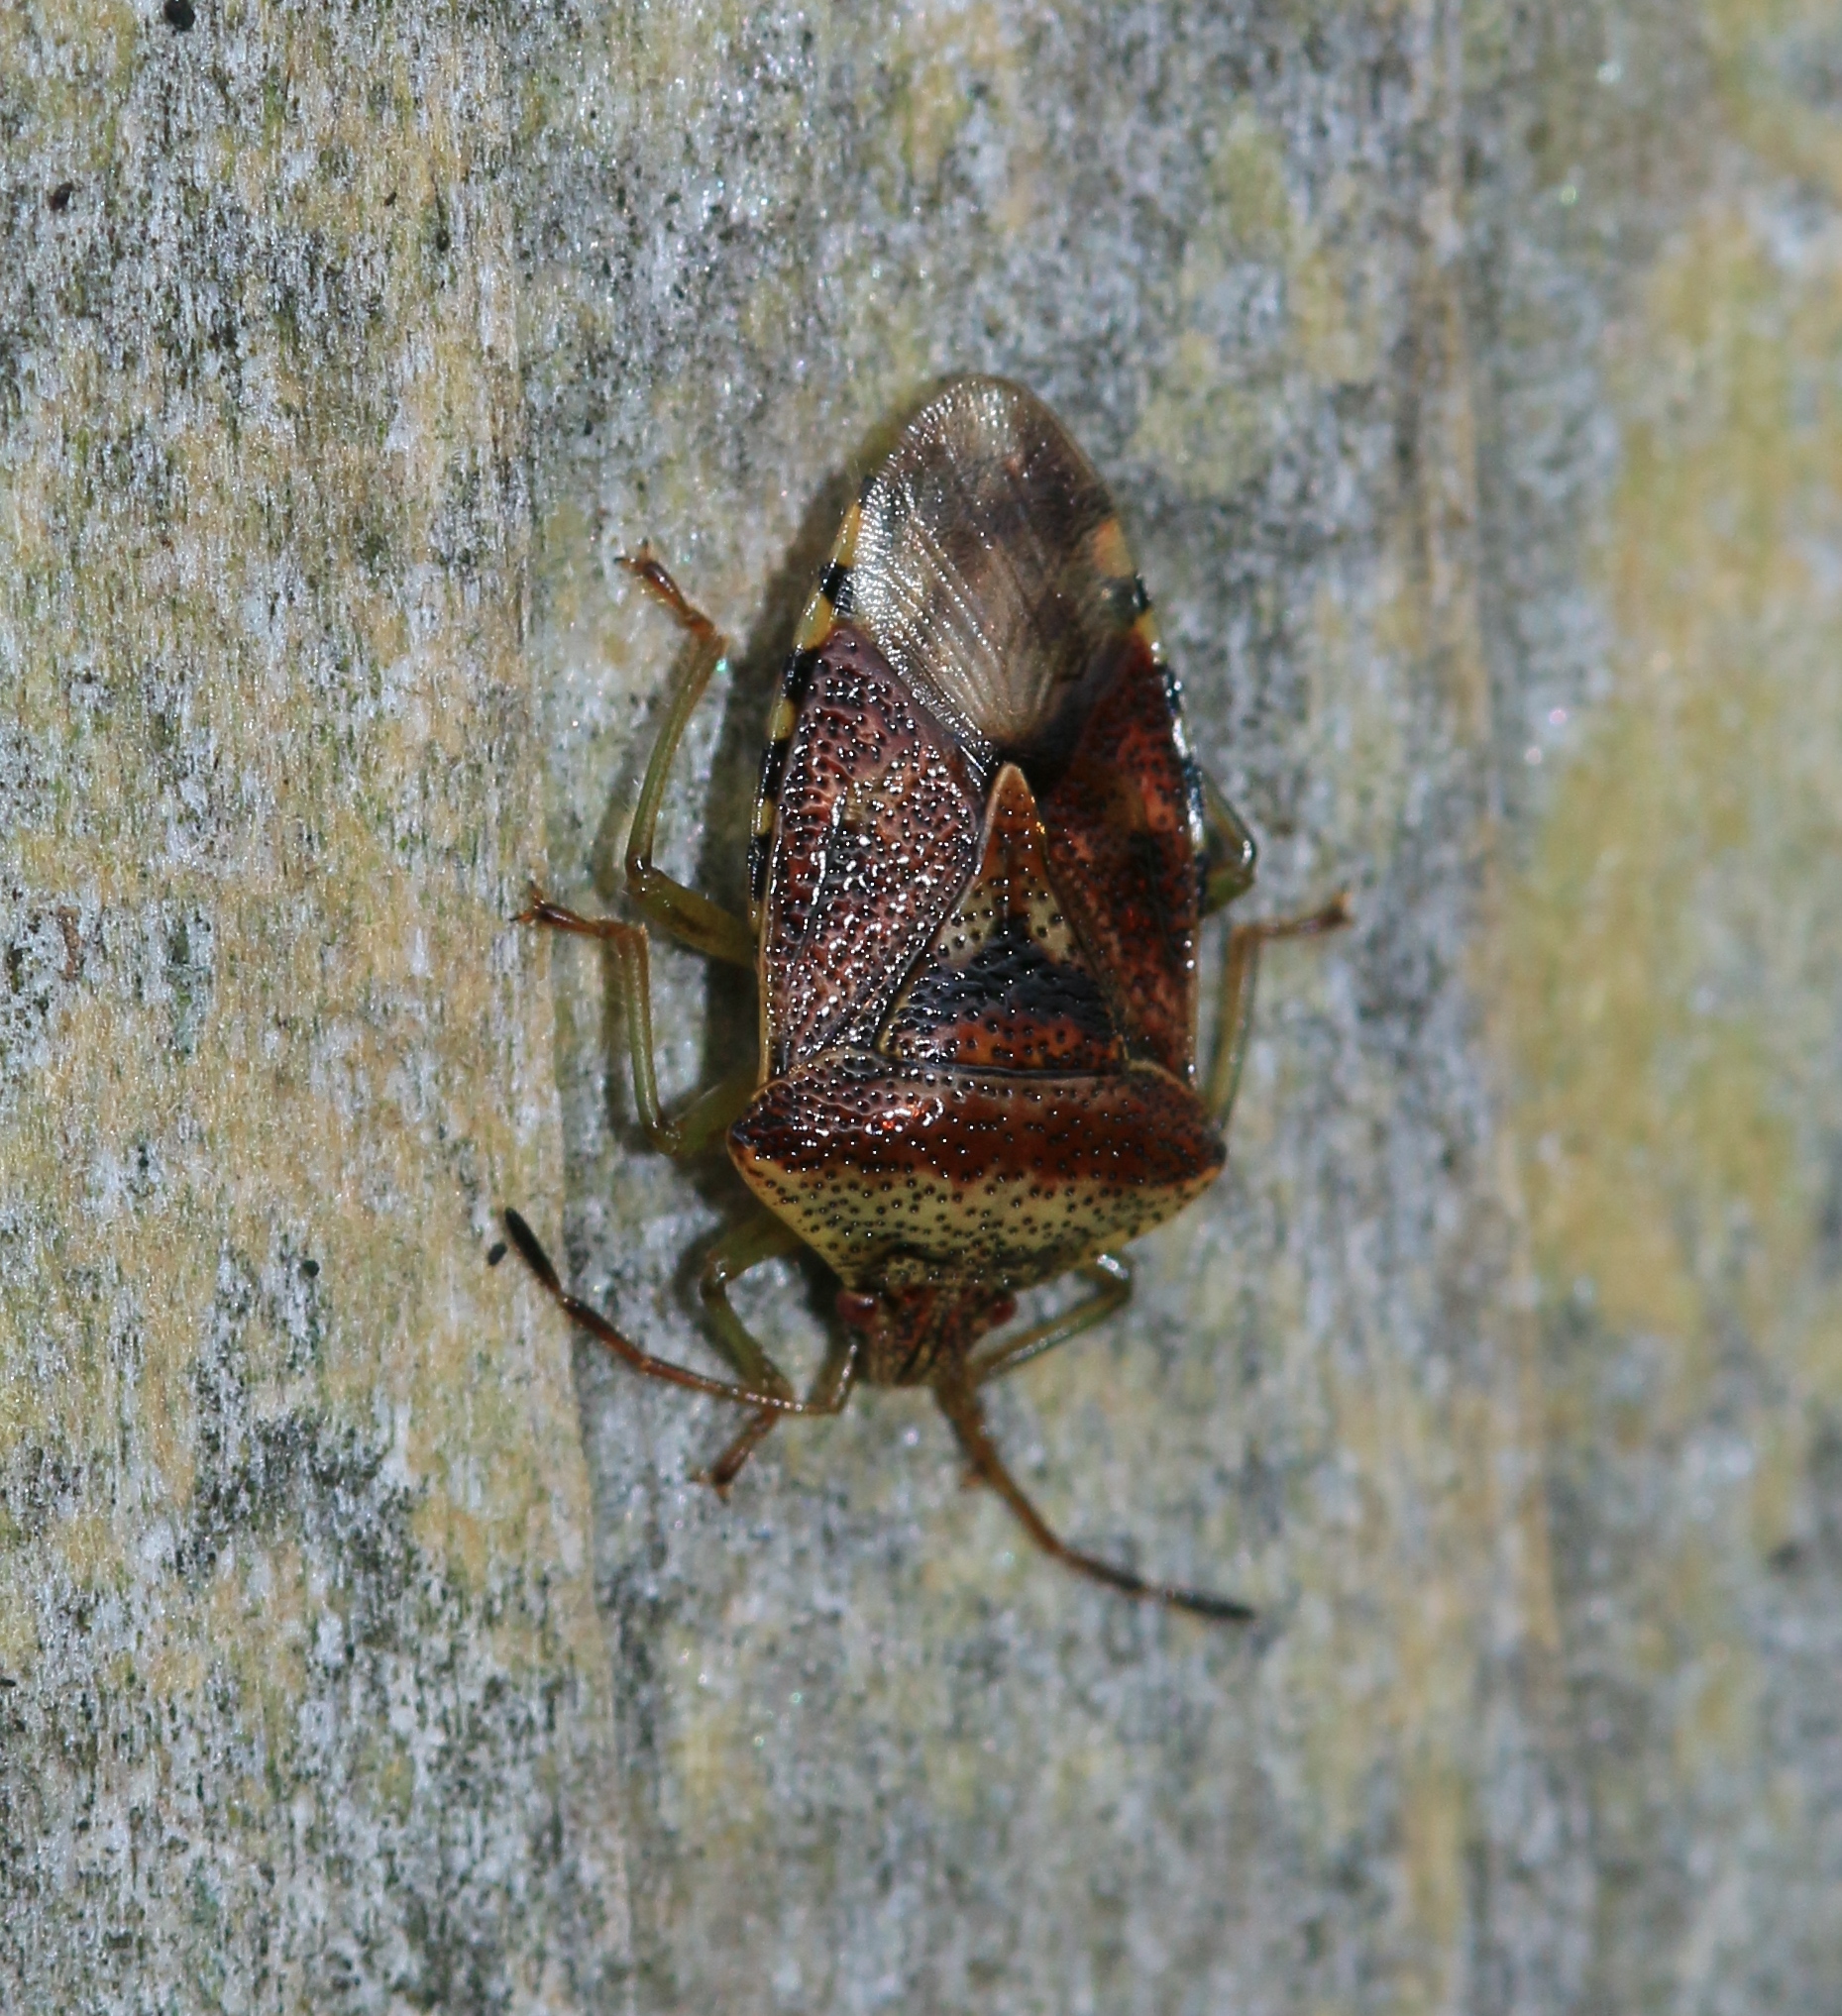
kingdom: Animalia
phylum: Arthropoda
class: Insecta
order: Hemiptera
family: Acanthosomatidae
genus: Elasmucha
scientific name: Elasmucha grisea
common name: Parent bug
